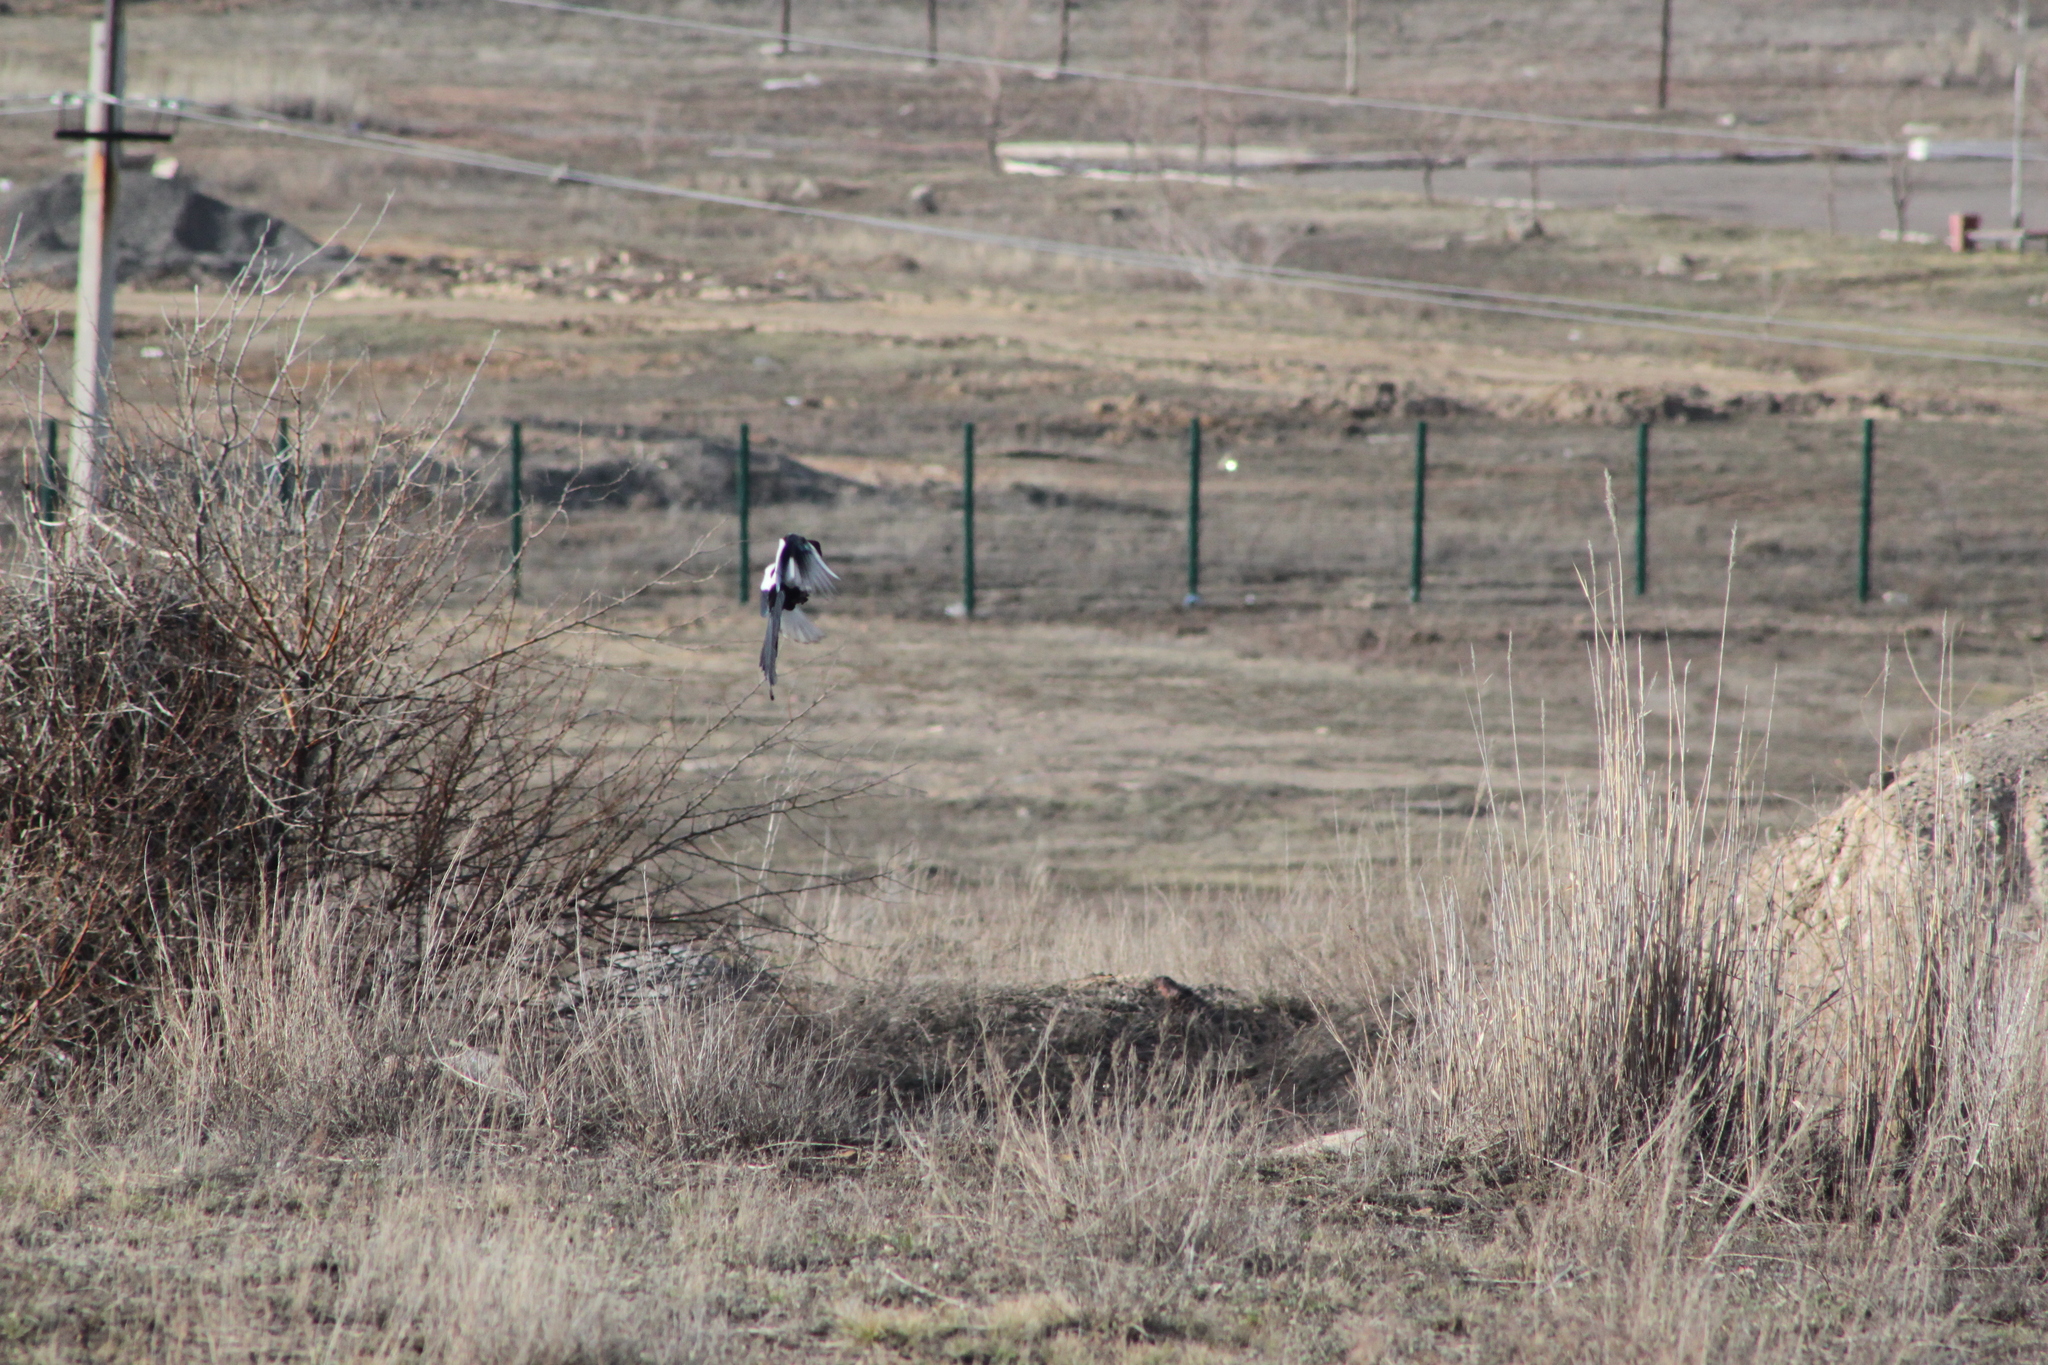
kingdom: Animalia
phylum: Chordata
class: Aves
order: Passeriformes
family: Corvidae
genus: Pica
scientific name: Pica pica
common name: Eurasian magpie
